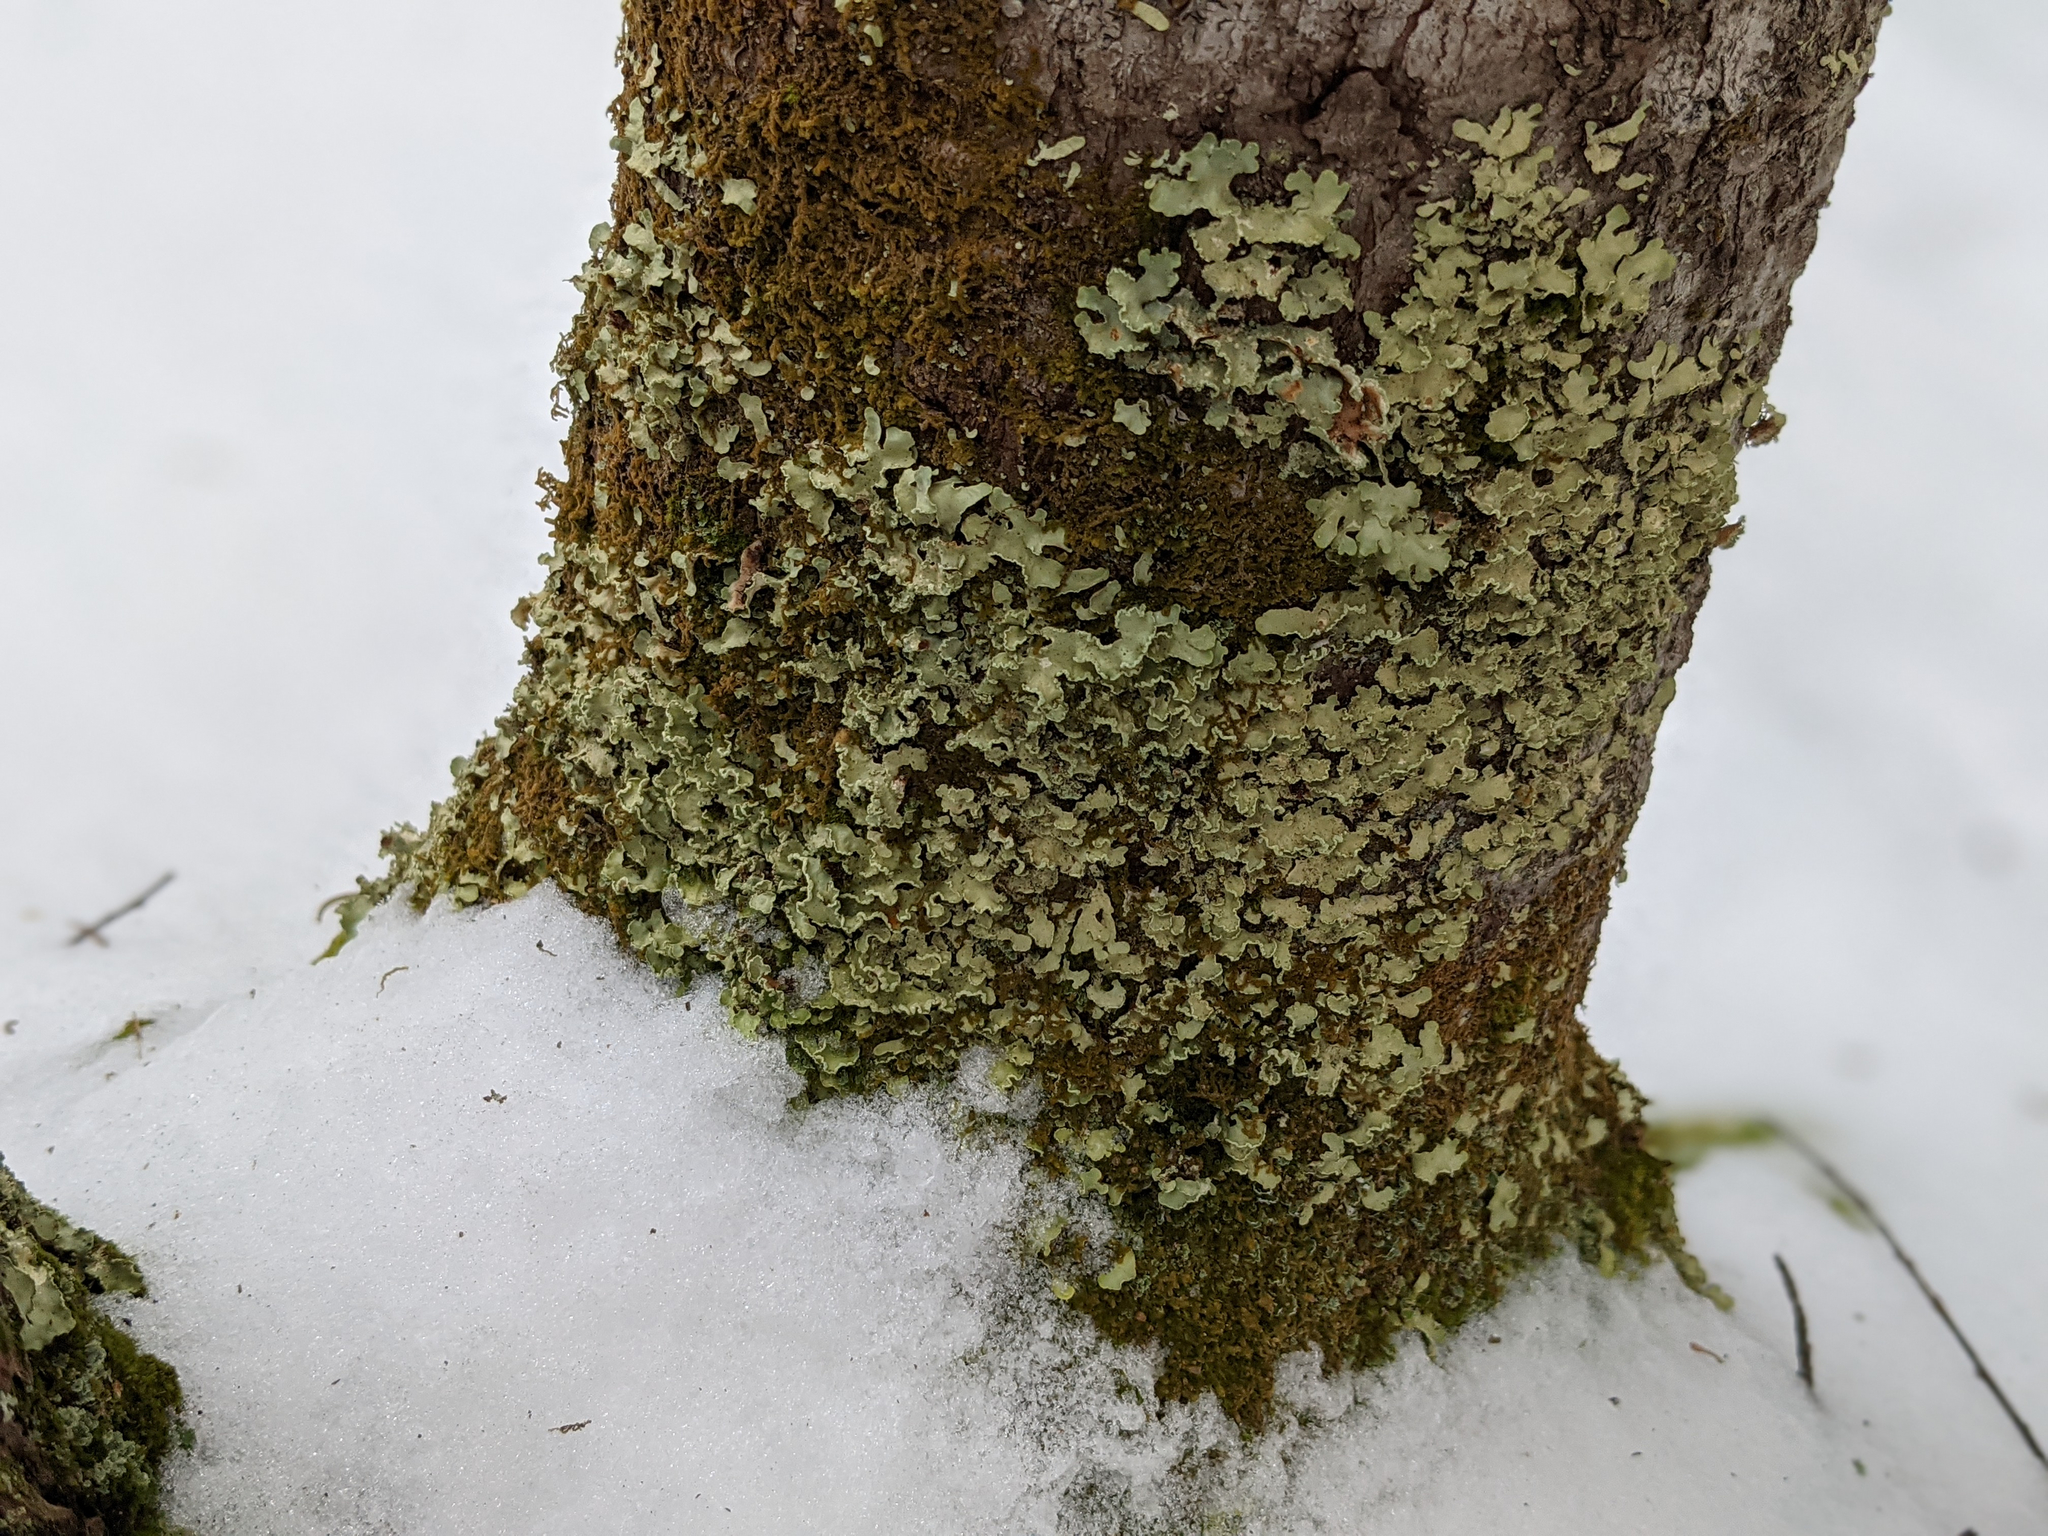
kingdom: Fungi
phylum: Ascomycota
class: Lecanoromycetes
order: Lecanorales
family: Parmeliaceae
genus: Usnocetraria
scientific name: Usnocetraria oakesiana
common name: Yellow ribbon lichen
